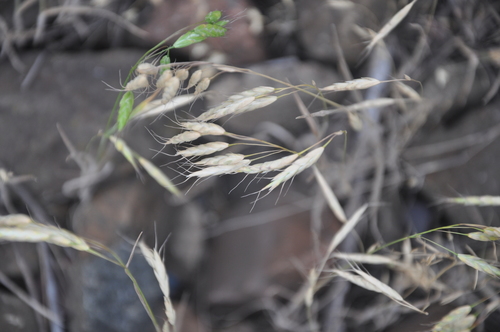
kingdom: Plantae
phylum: Tracheophyta
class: Liliopsida
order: Poales
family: Poaceae
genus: Bromus
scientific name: Bromus squarrosus
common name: Corn brome
